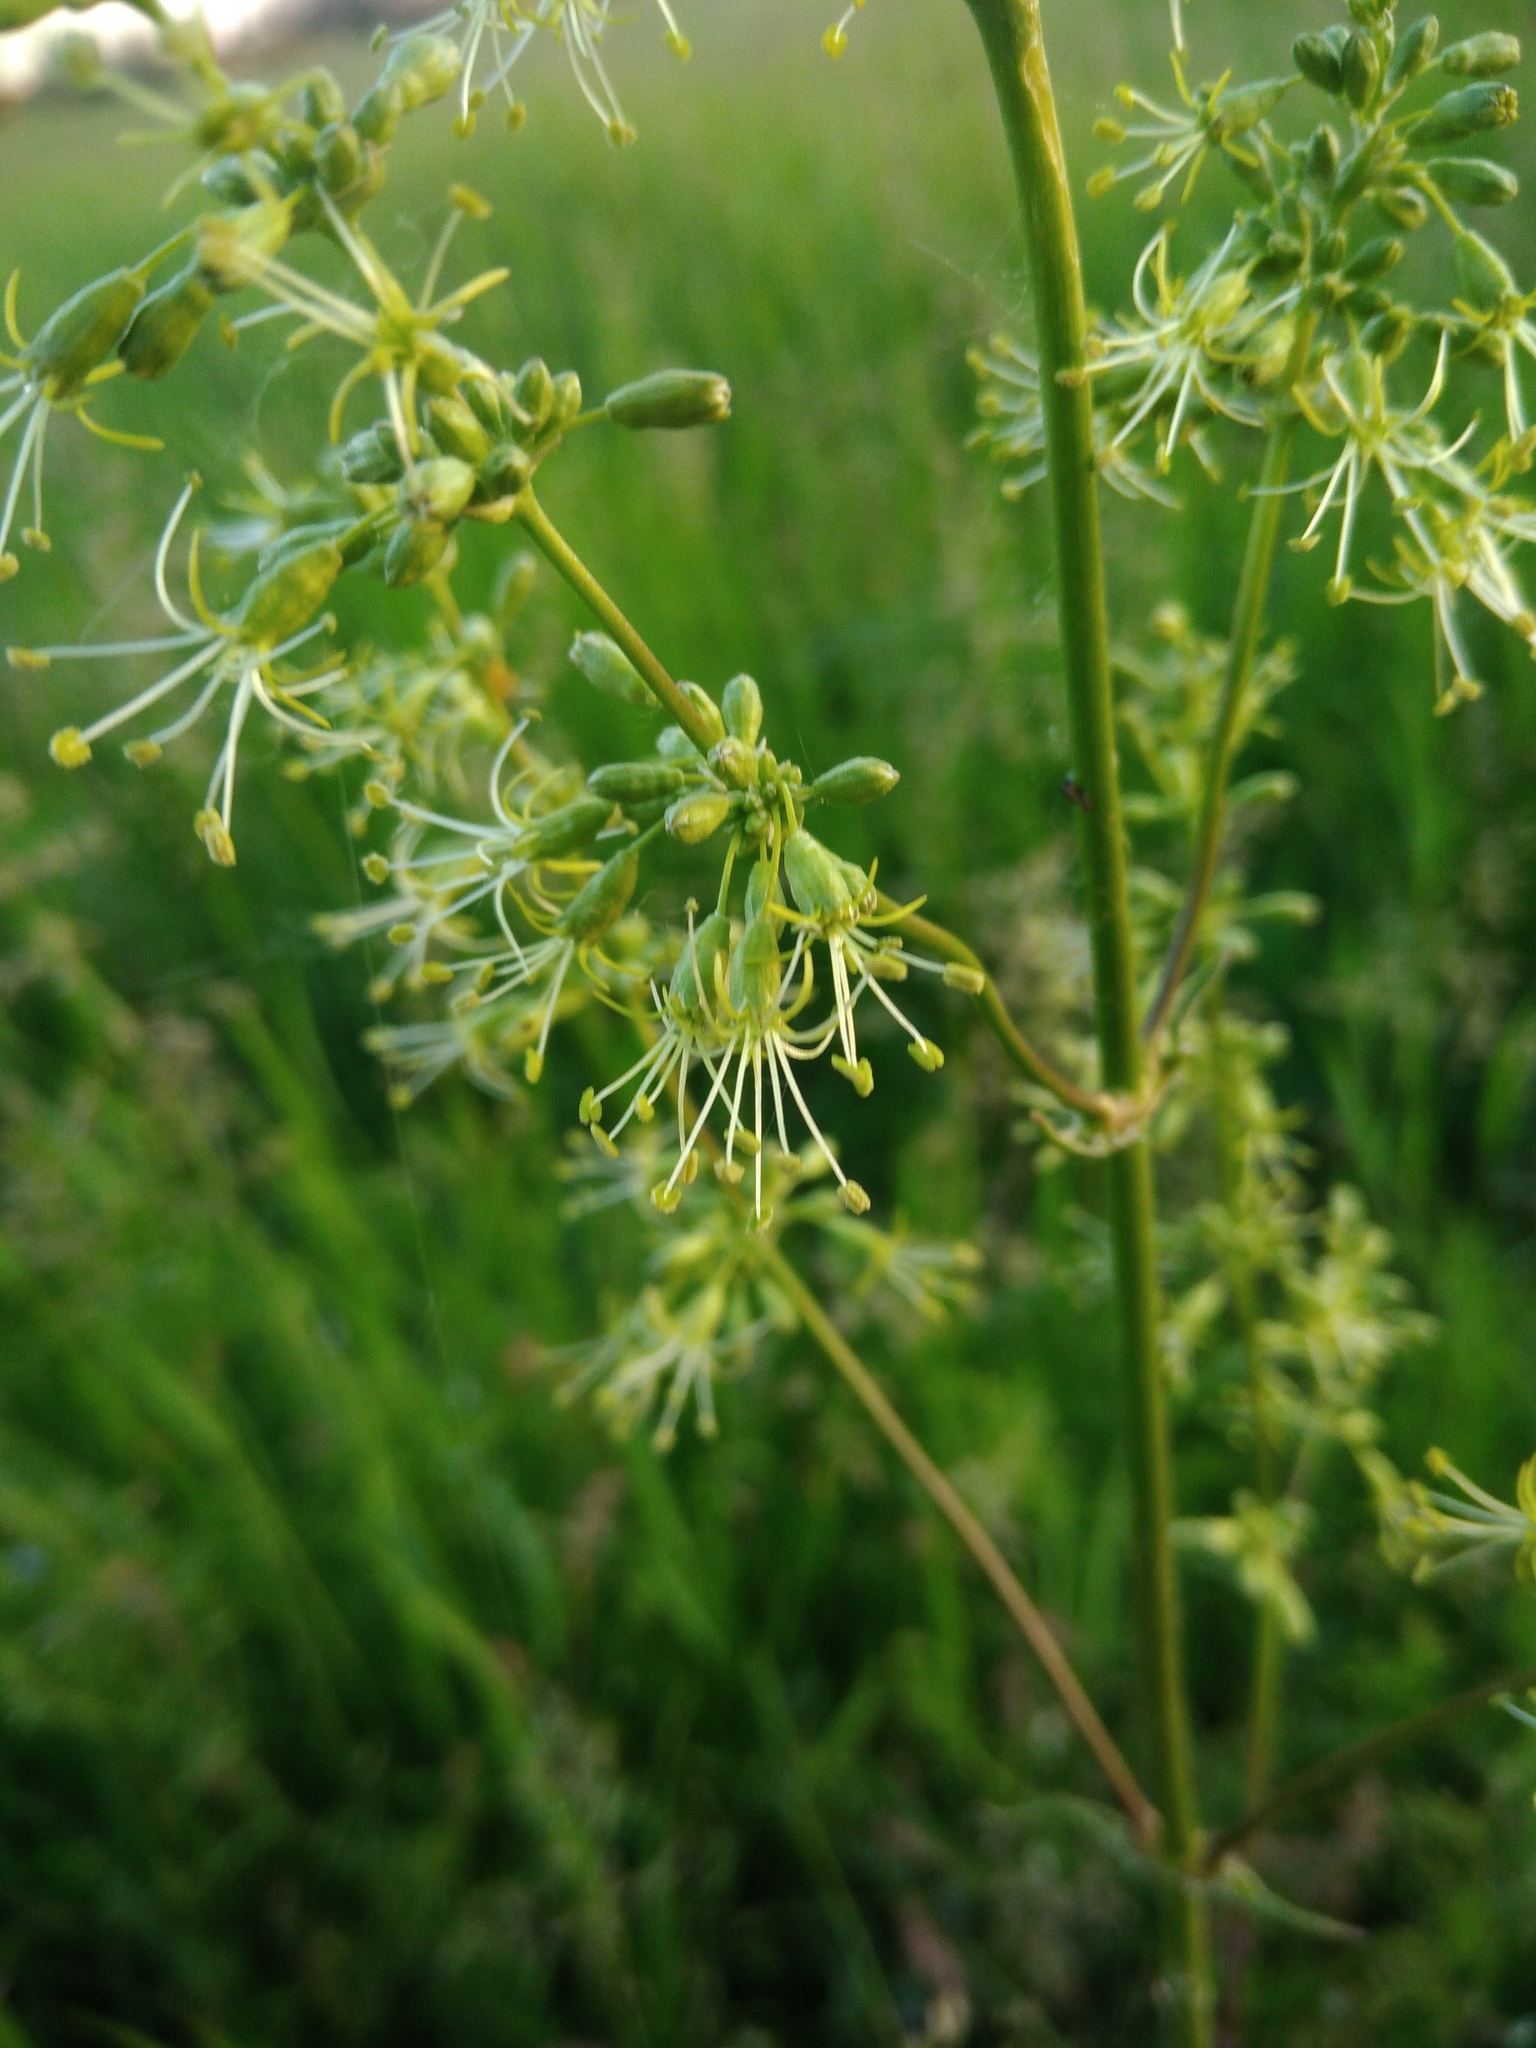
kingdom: Plantae
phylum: Tracheophyta
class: Magnoliopsida
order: Caryophyllales
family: Caryophyllaceae
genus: Silene
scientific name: Silene chersonensis
